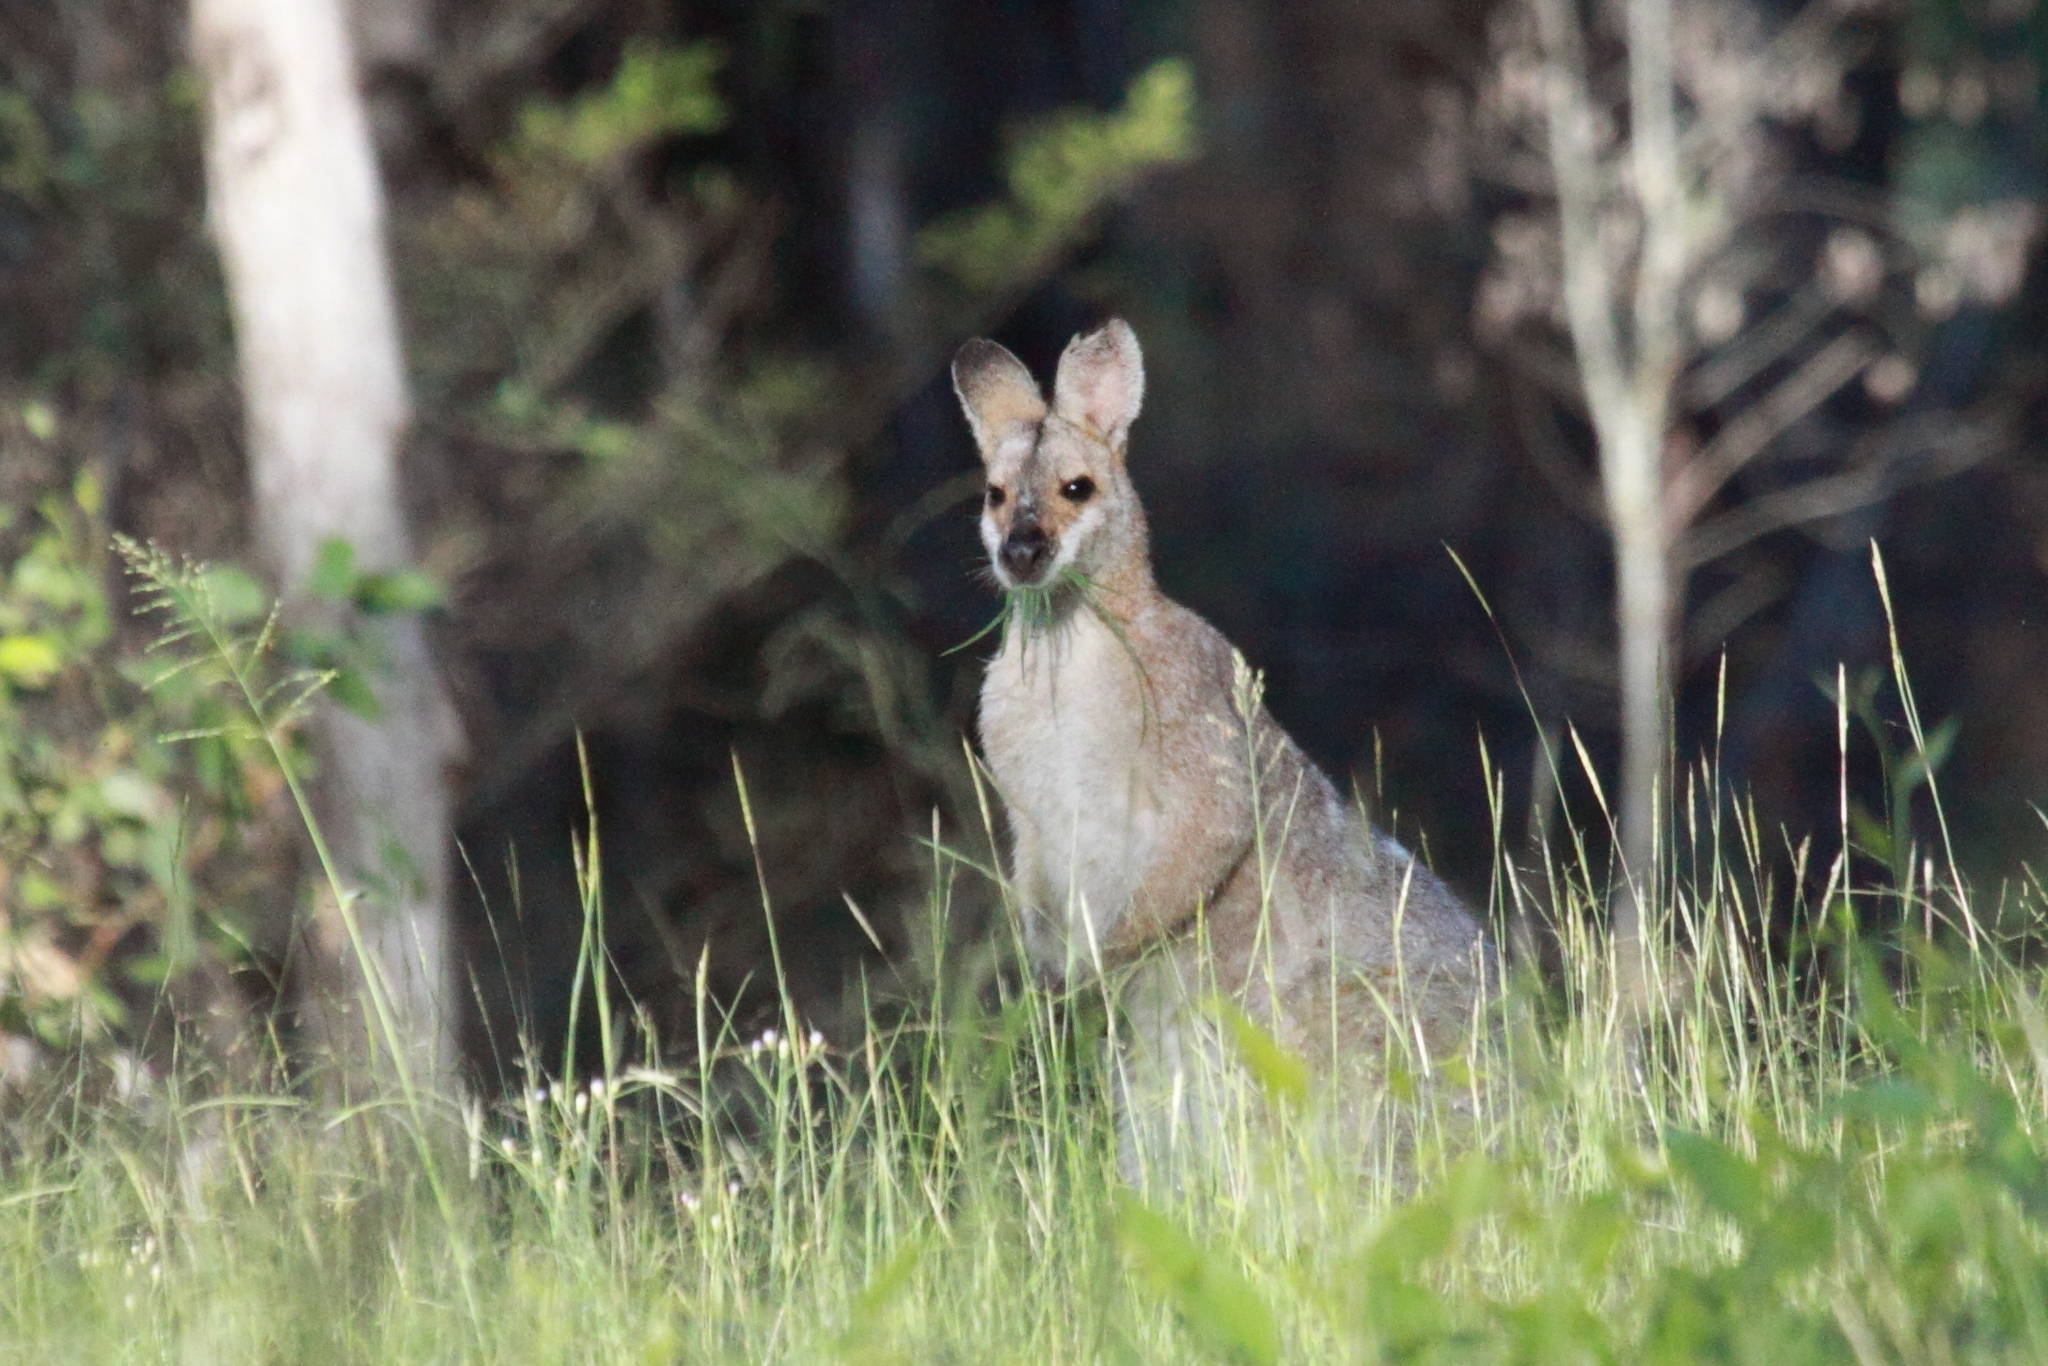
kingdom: Animalia
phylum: Chordata
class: Mammalia
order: Diprotodontia
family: Macropodidae
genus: Notamacropus
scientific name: Notamacropus rufogriseus
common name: Red-necked wallaby
